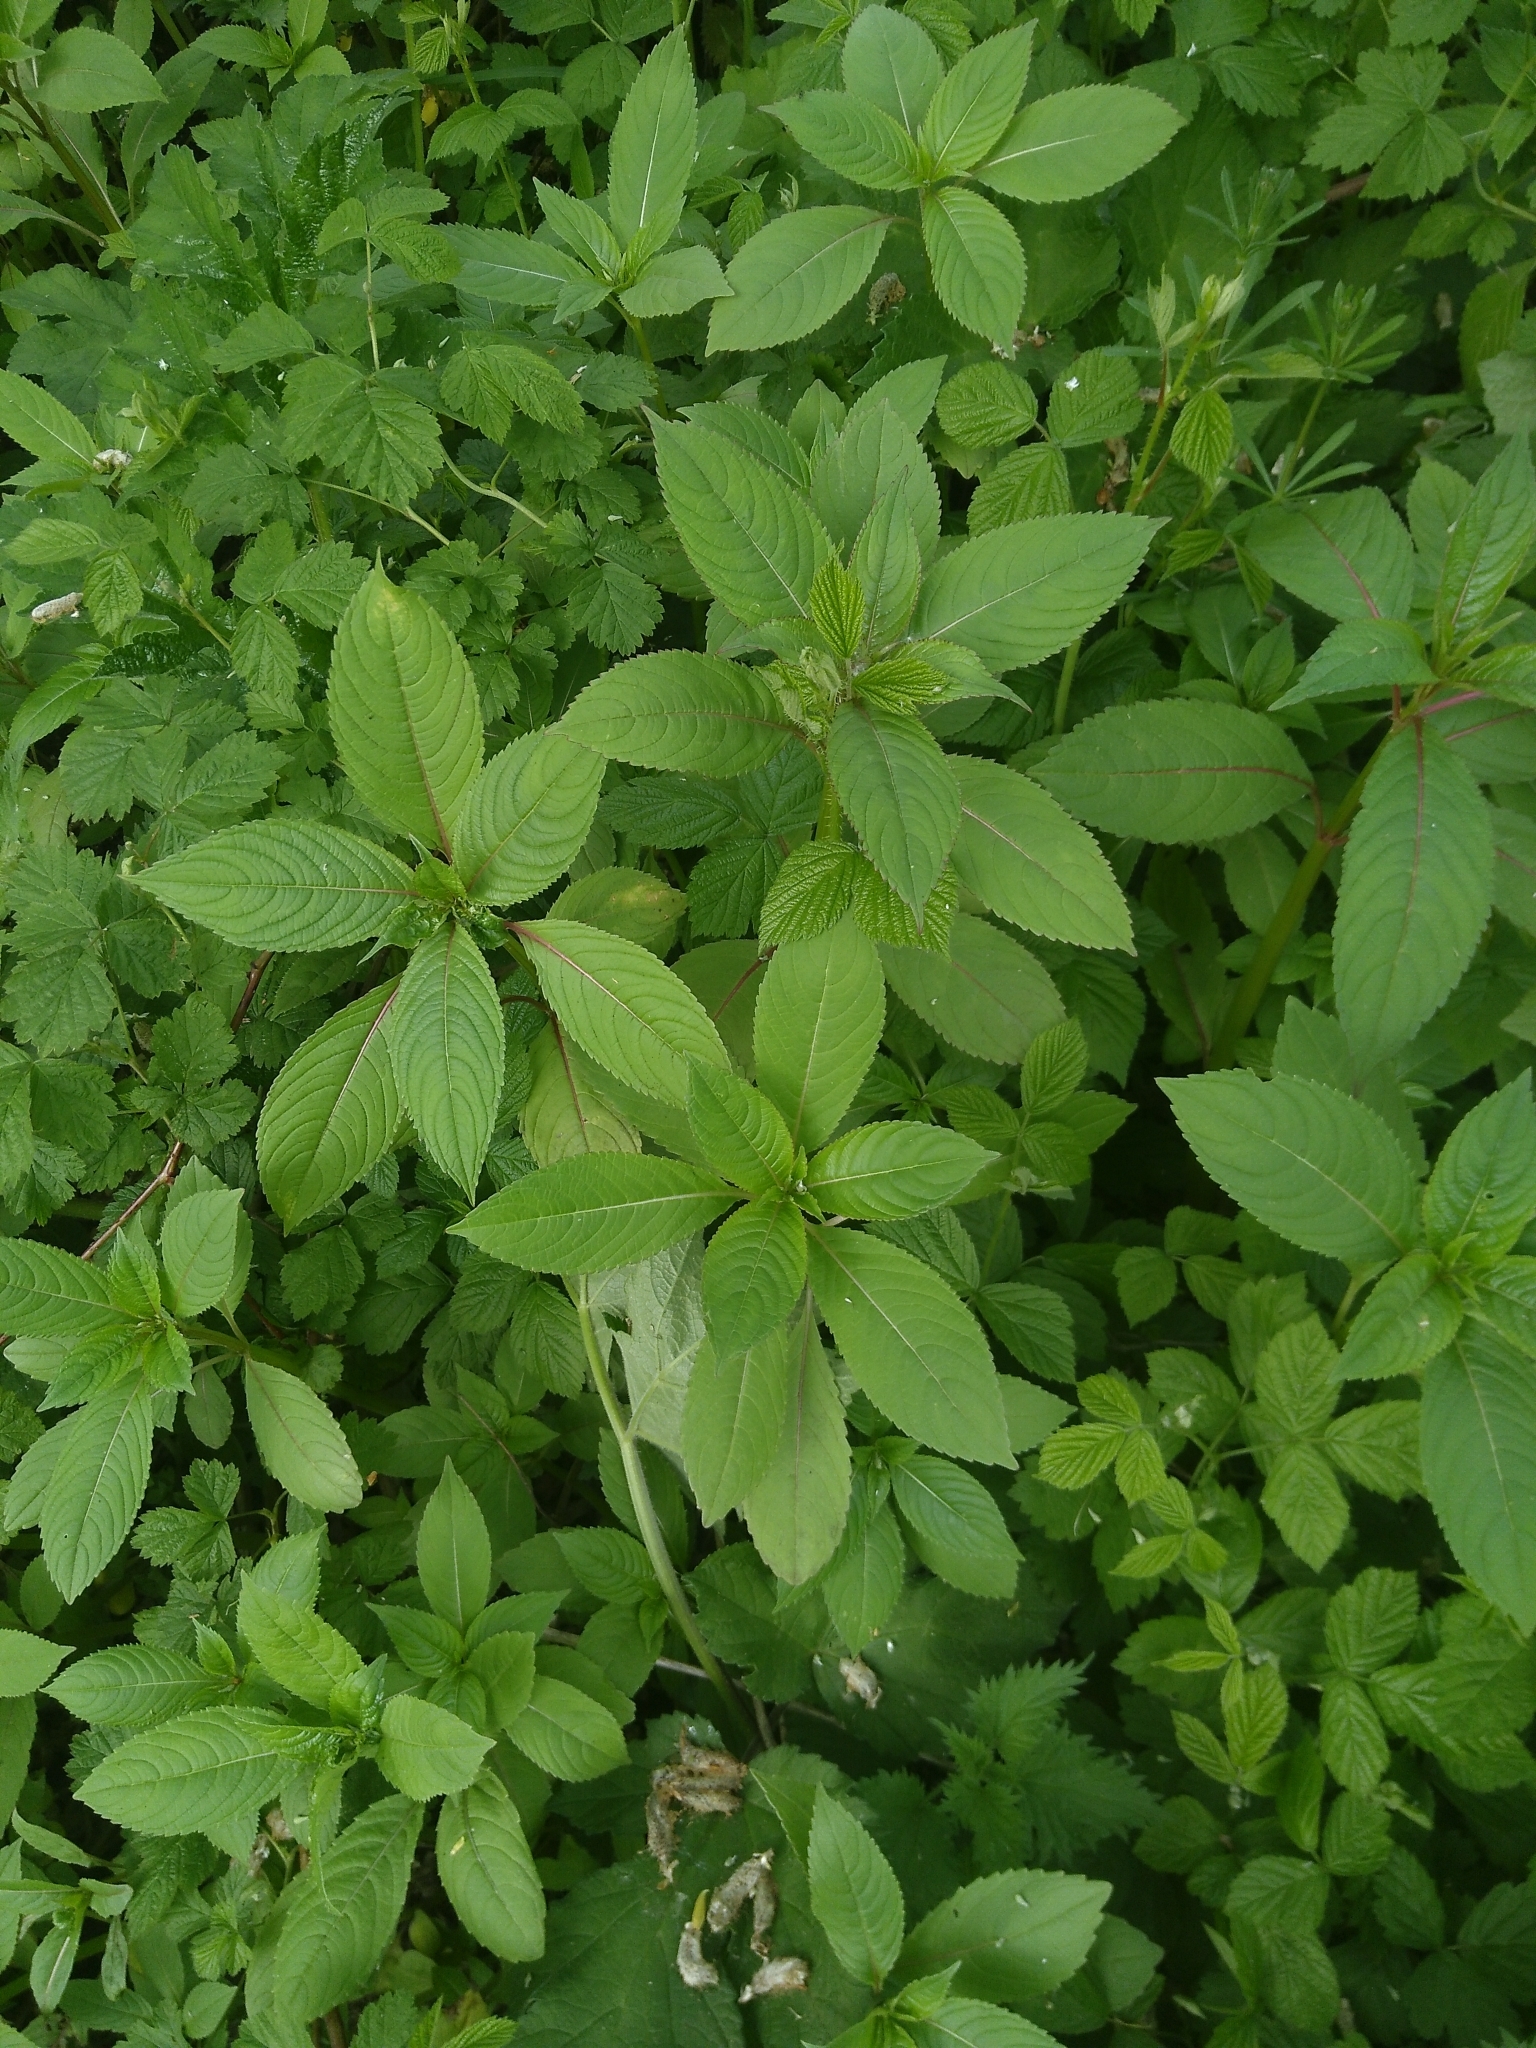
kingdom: Plantae
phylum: Tracheophyta
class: Magnoliopsida
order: Ericales
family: Balsaminaceae
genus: Impatiens
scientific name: Impatiens glandulifera
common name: Himalayan balsam
